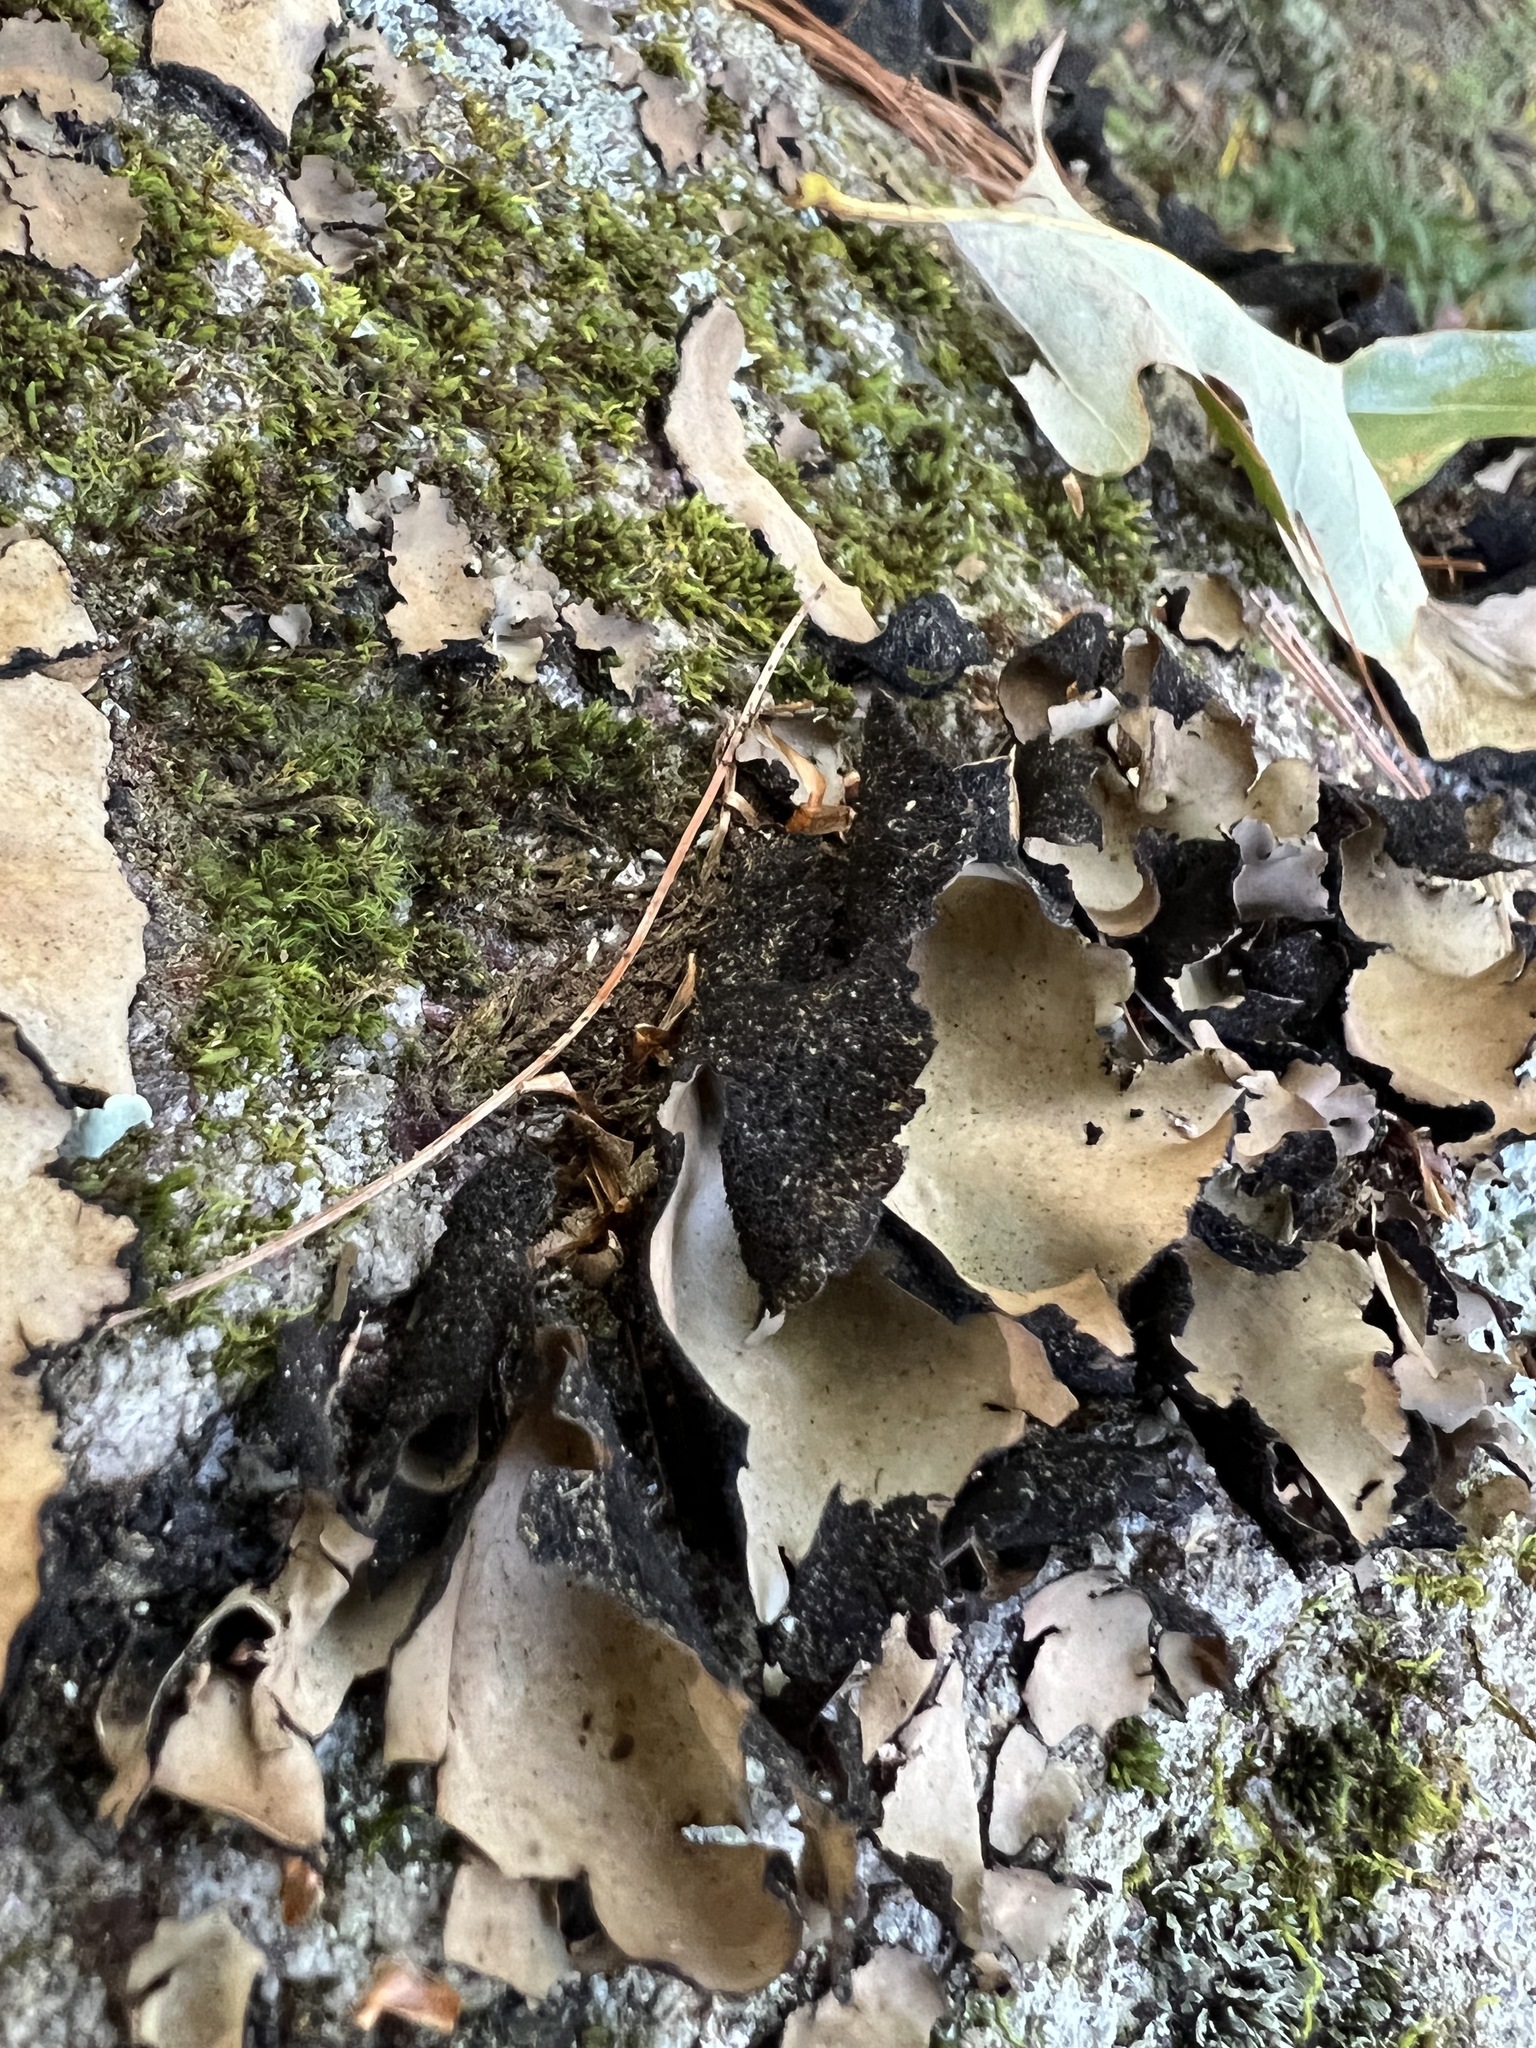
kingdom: Fungi
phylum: Ascomycota
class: Lecanoromycetes
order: Umbilicariales
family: Umbilicariaceae
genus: Umbilicaria
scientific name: Umbilicaria mammulata
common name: Smooth rock tripe
